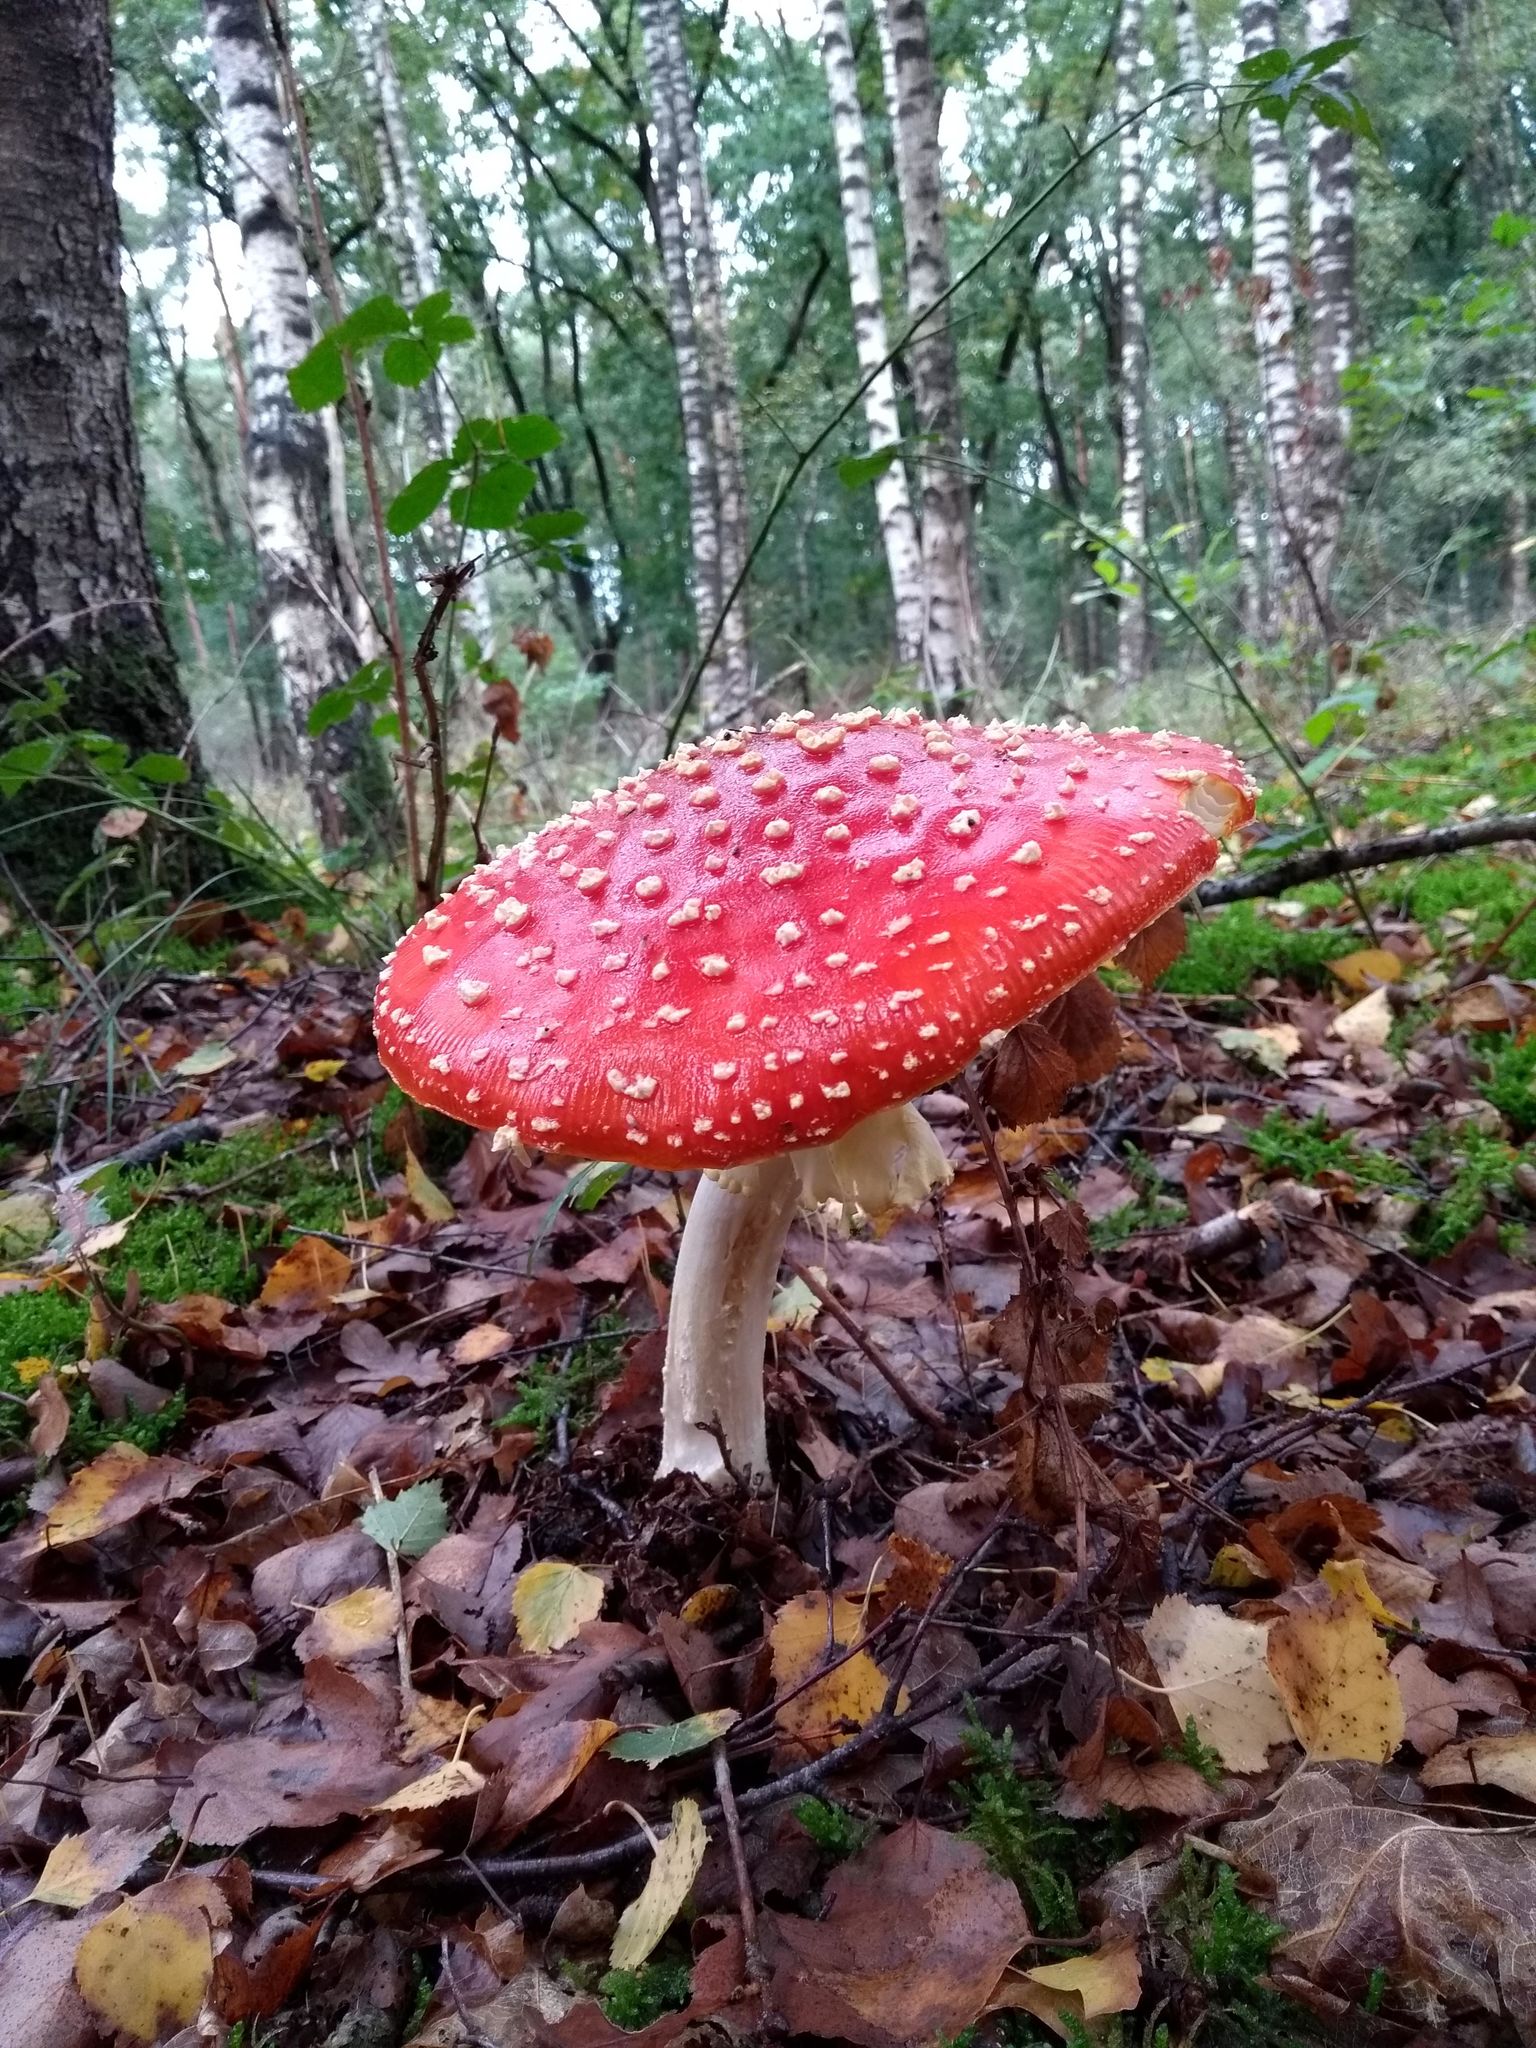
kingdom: Fungi
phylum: Basidiomycota
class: Agaricomycetes
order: Agaricales
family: Amanitaceae
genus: Amanita
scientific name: Amanita muscaria
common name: Fly agaric
